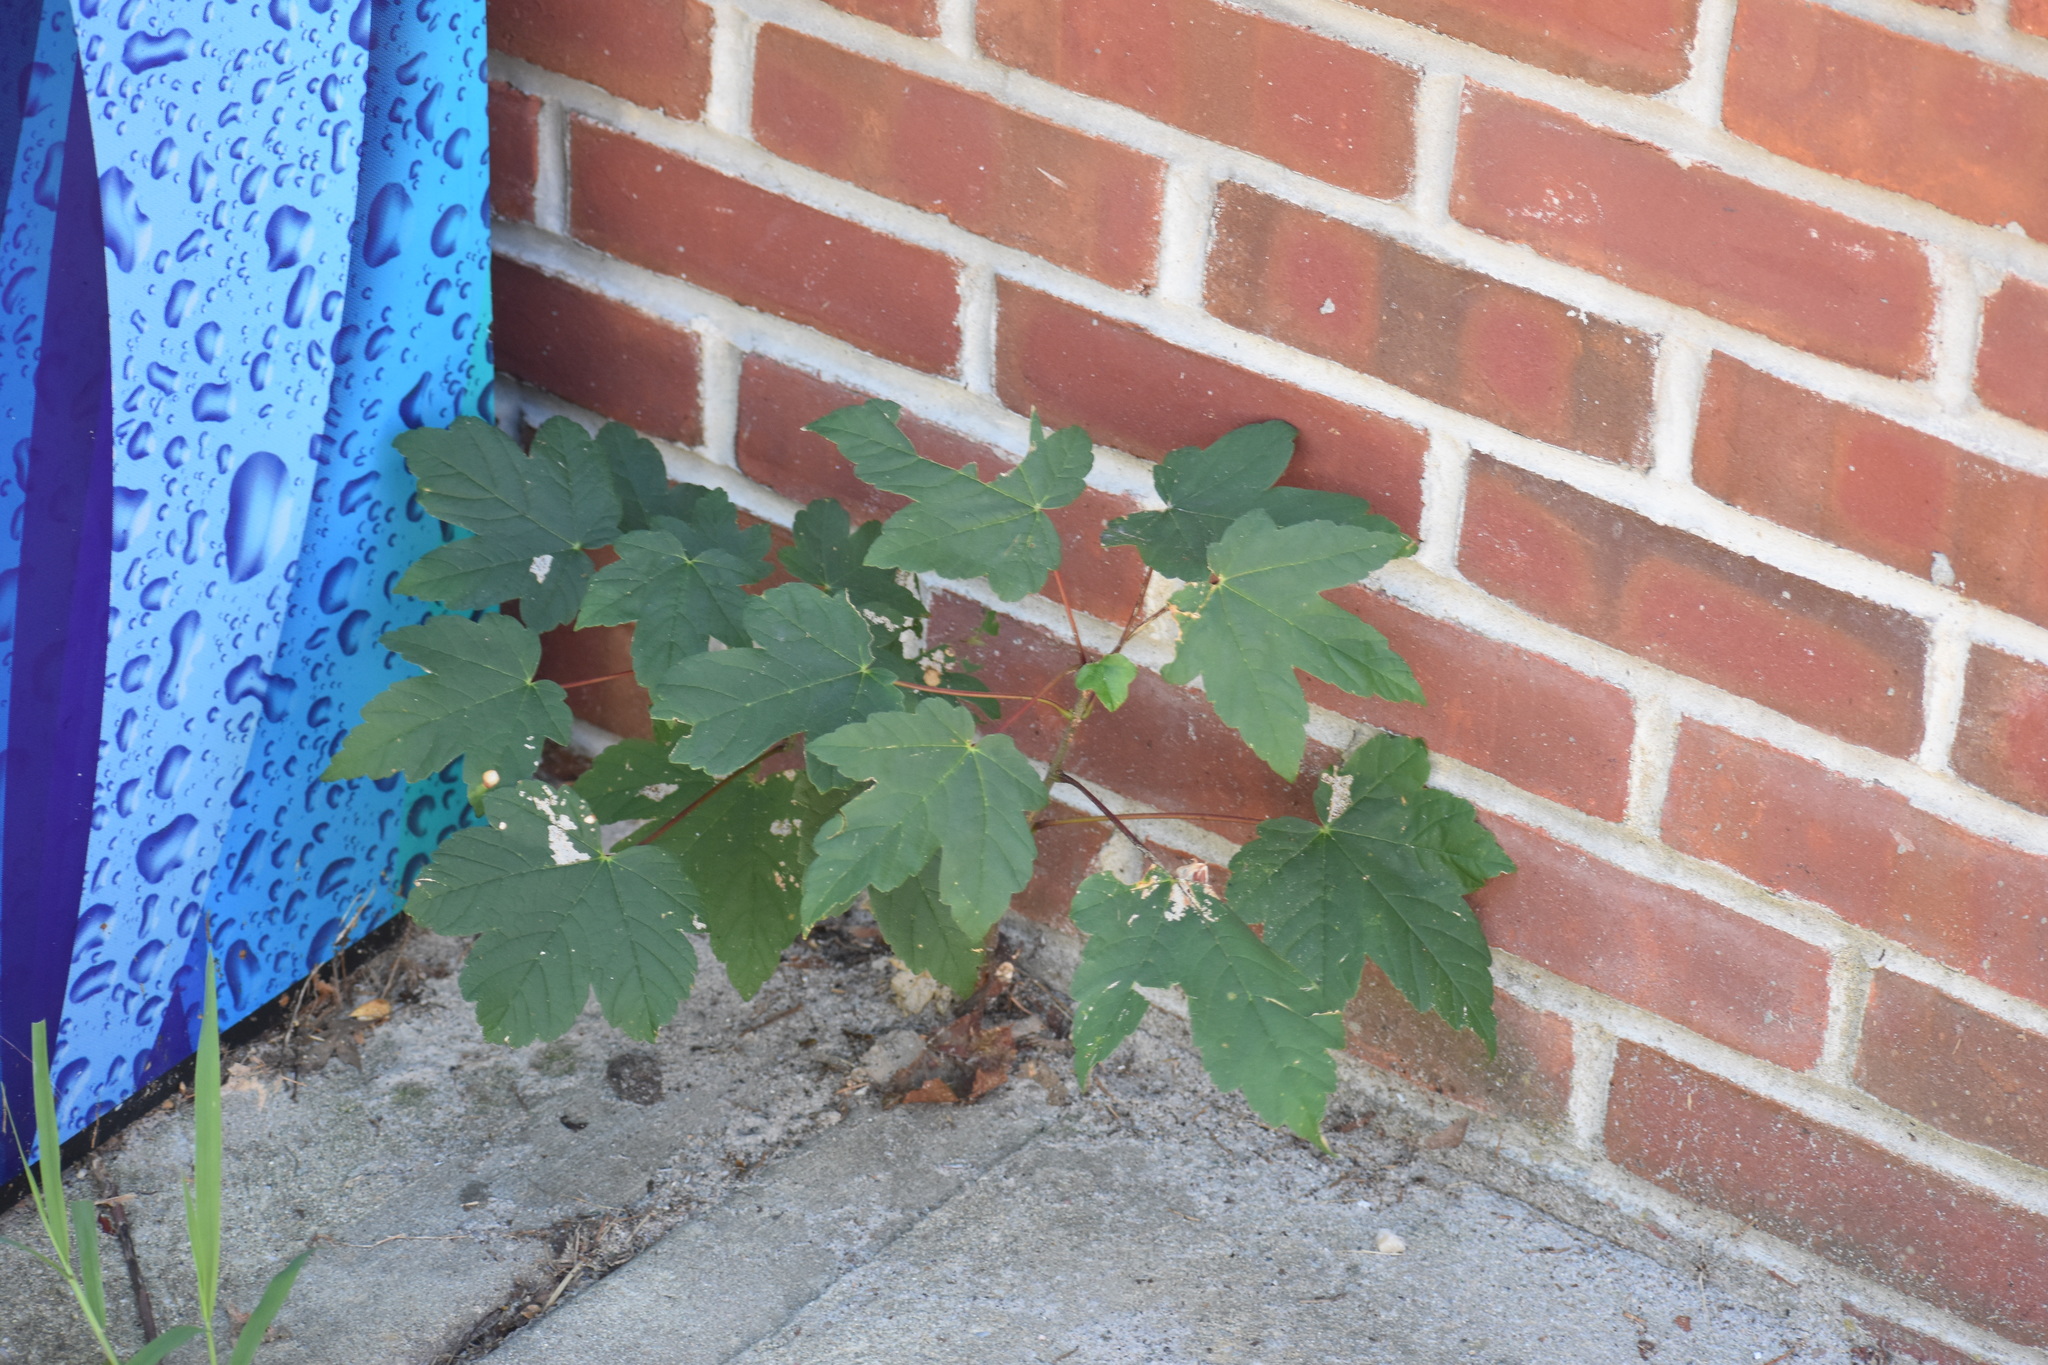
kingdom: Plantae
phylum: Tracheophyta
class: Magnoliopsida
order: Sapindales
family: Sapindaceae
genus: Acer
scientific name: Acer pseudoplatanus
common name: Sycamore
